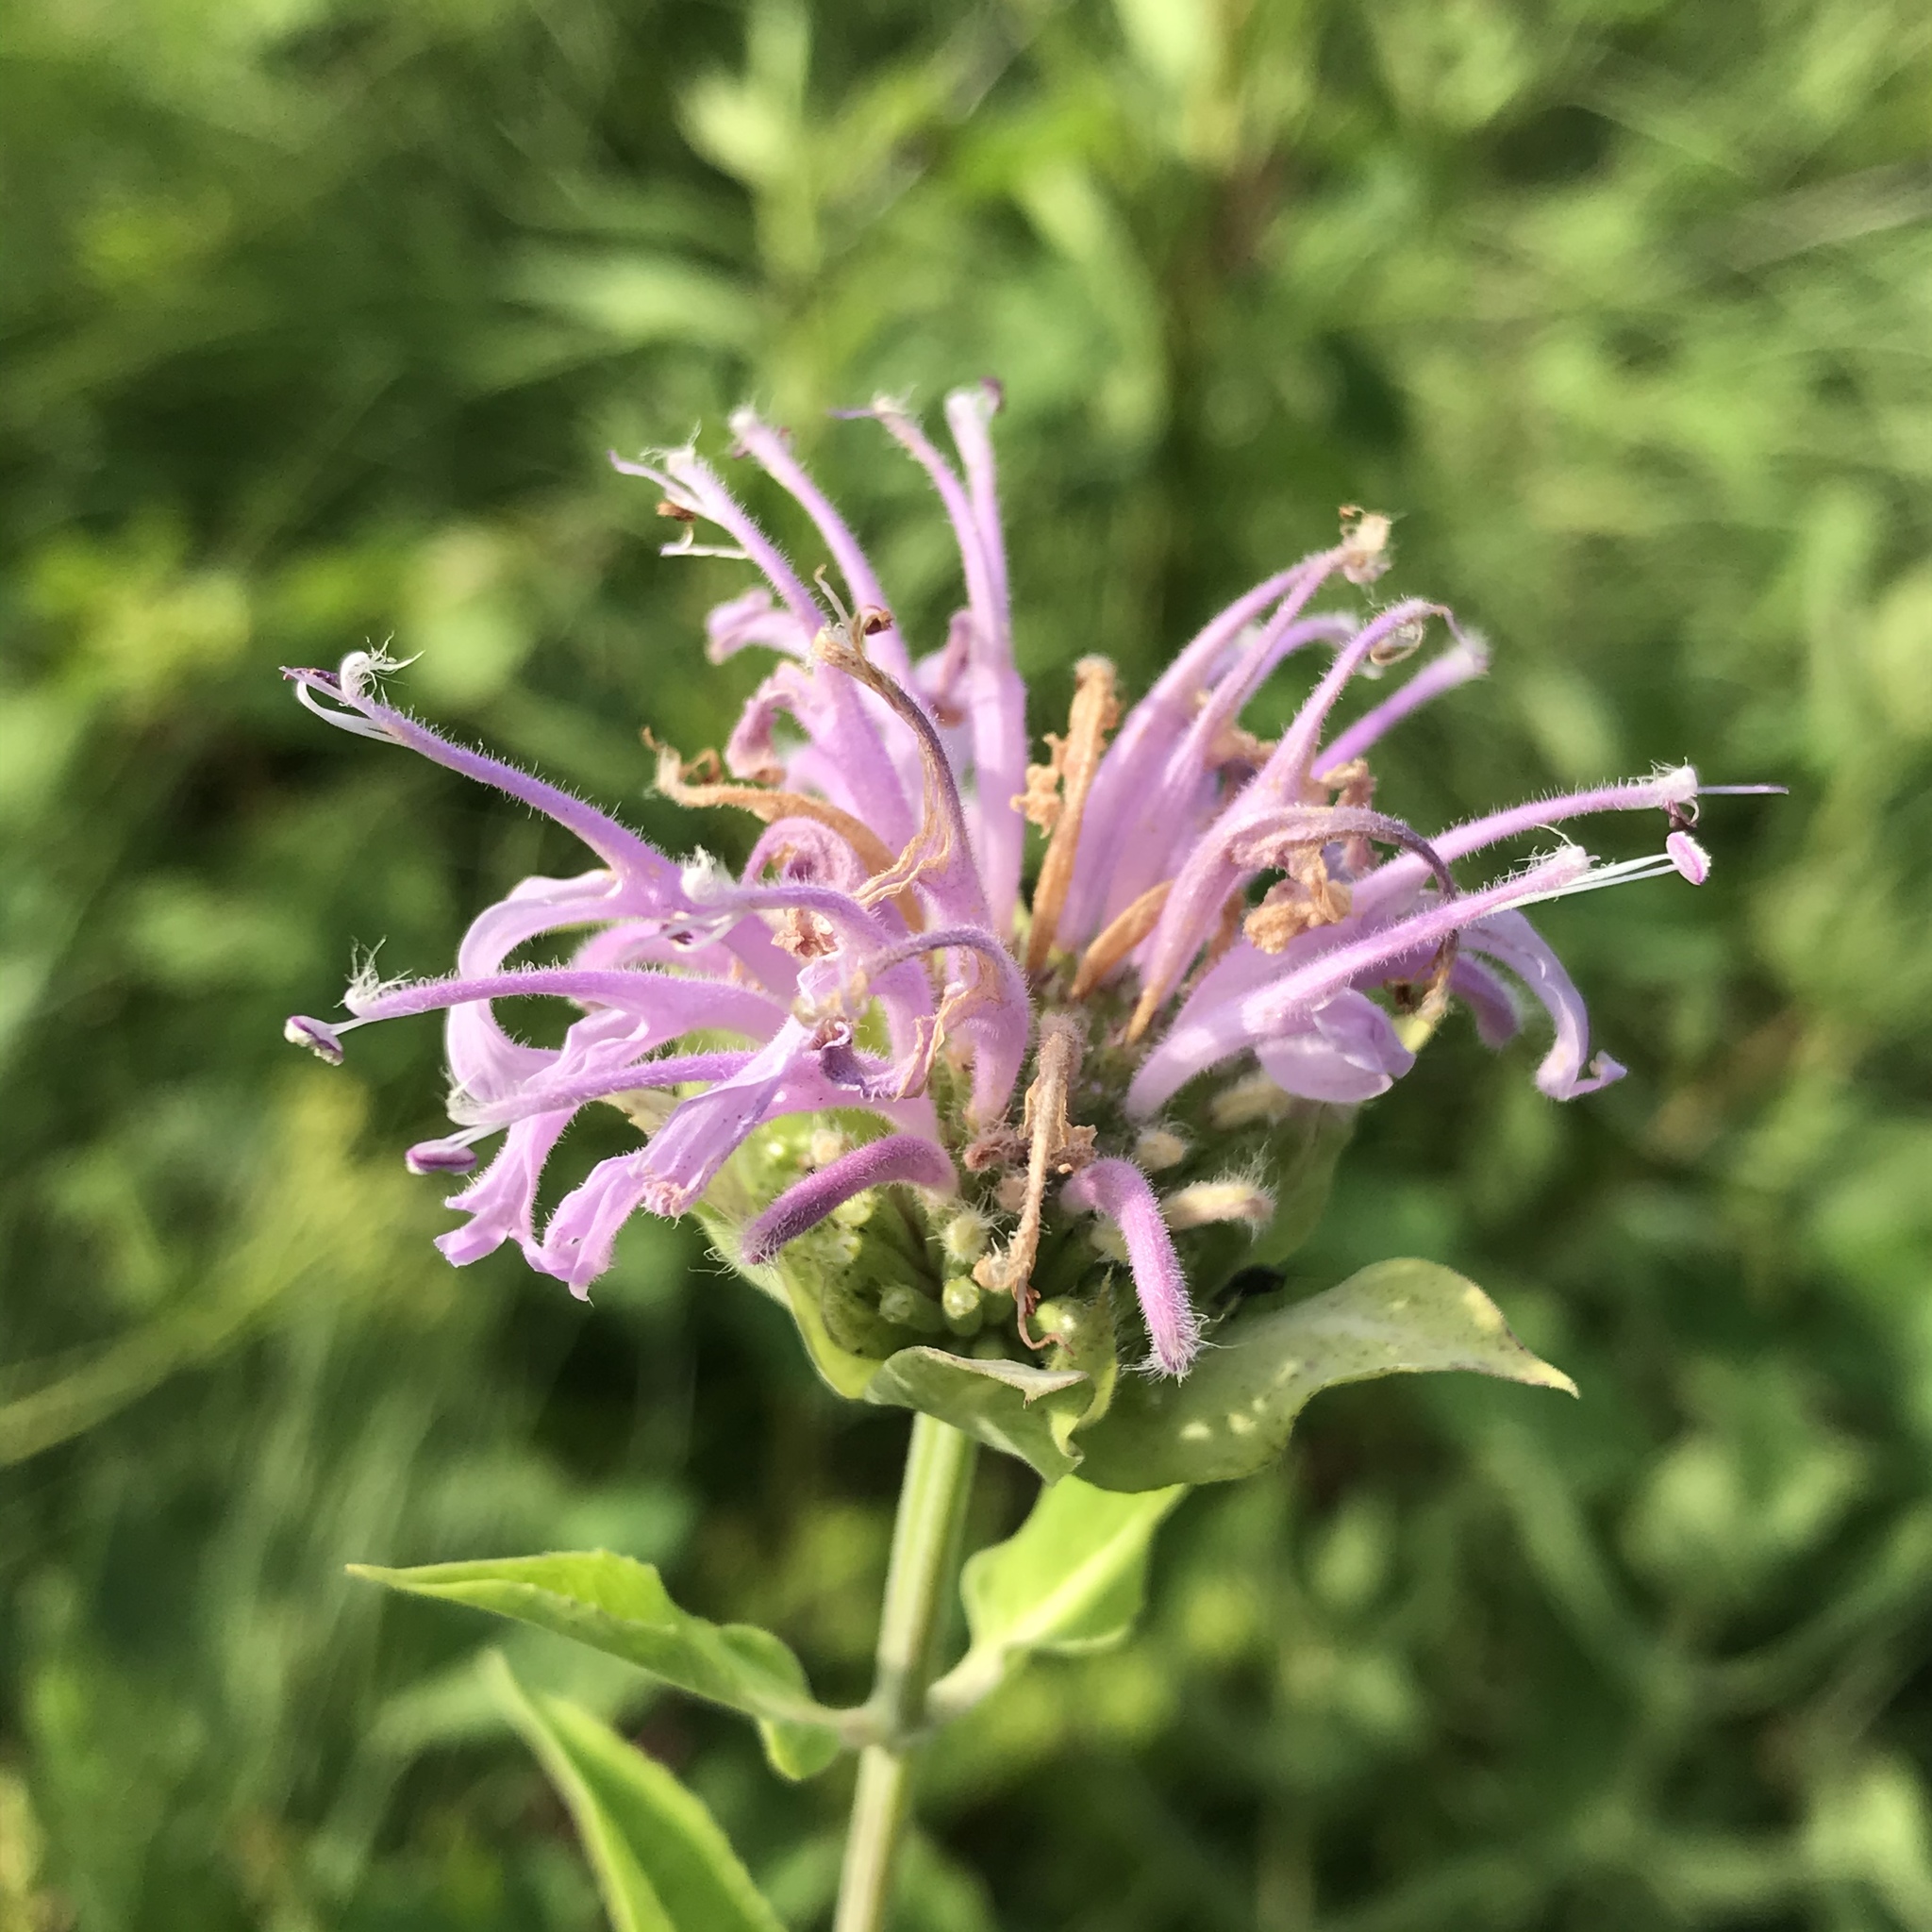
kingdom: Plantae
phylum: Tracheophyta
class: Magnoliopsida
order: Lamiales
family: Lamiaceae
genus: Monarda
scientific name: Monarda fistulosa
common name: Purple beebalm
